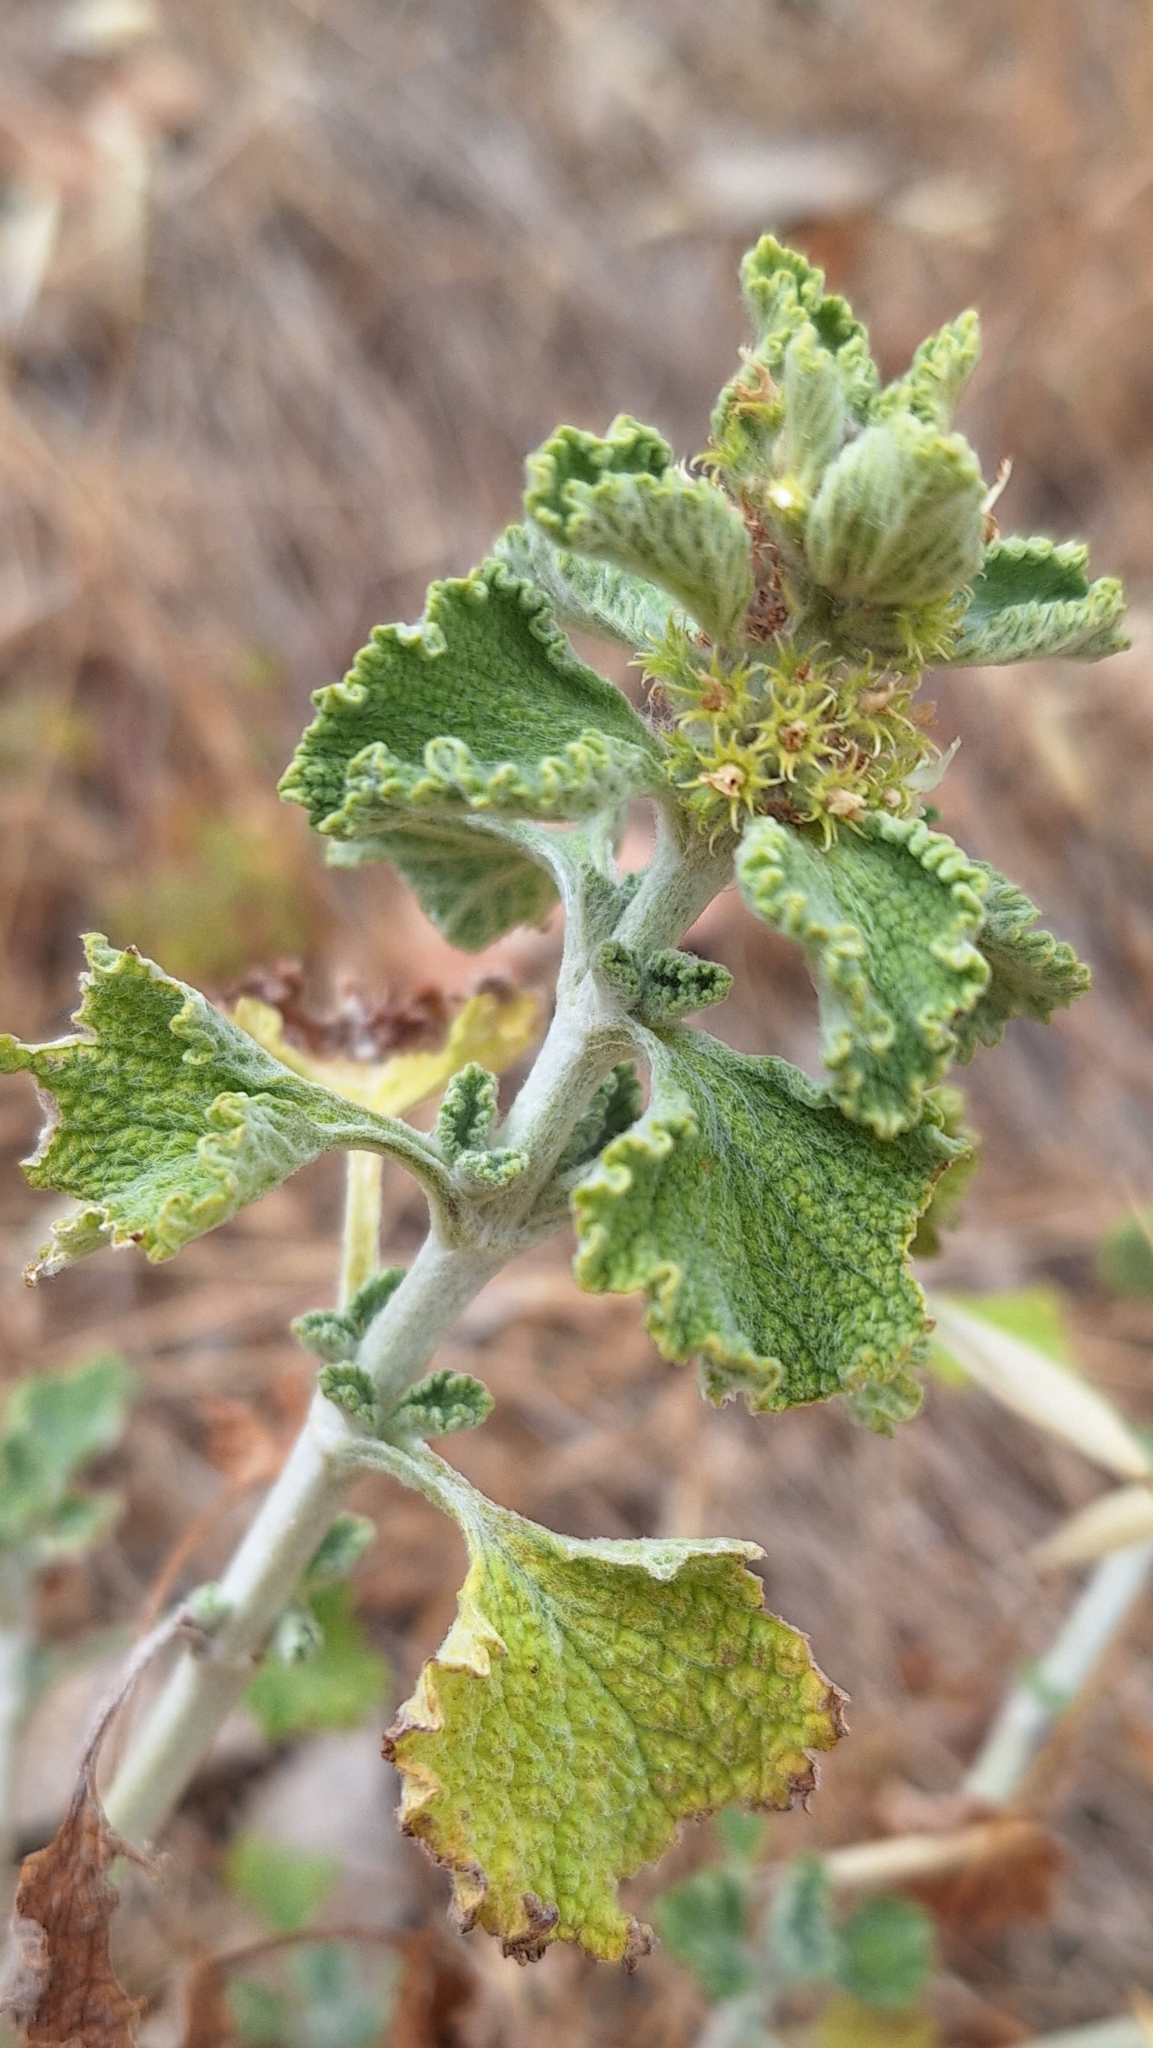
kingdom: Plantae
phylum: Tracheophyta
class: Magnoliopsida
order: Lamiales
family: Lamiaceae
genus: Marrubium
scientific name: Marrubium vulgare
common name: Horehound
